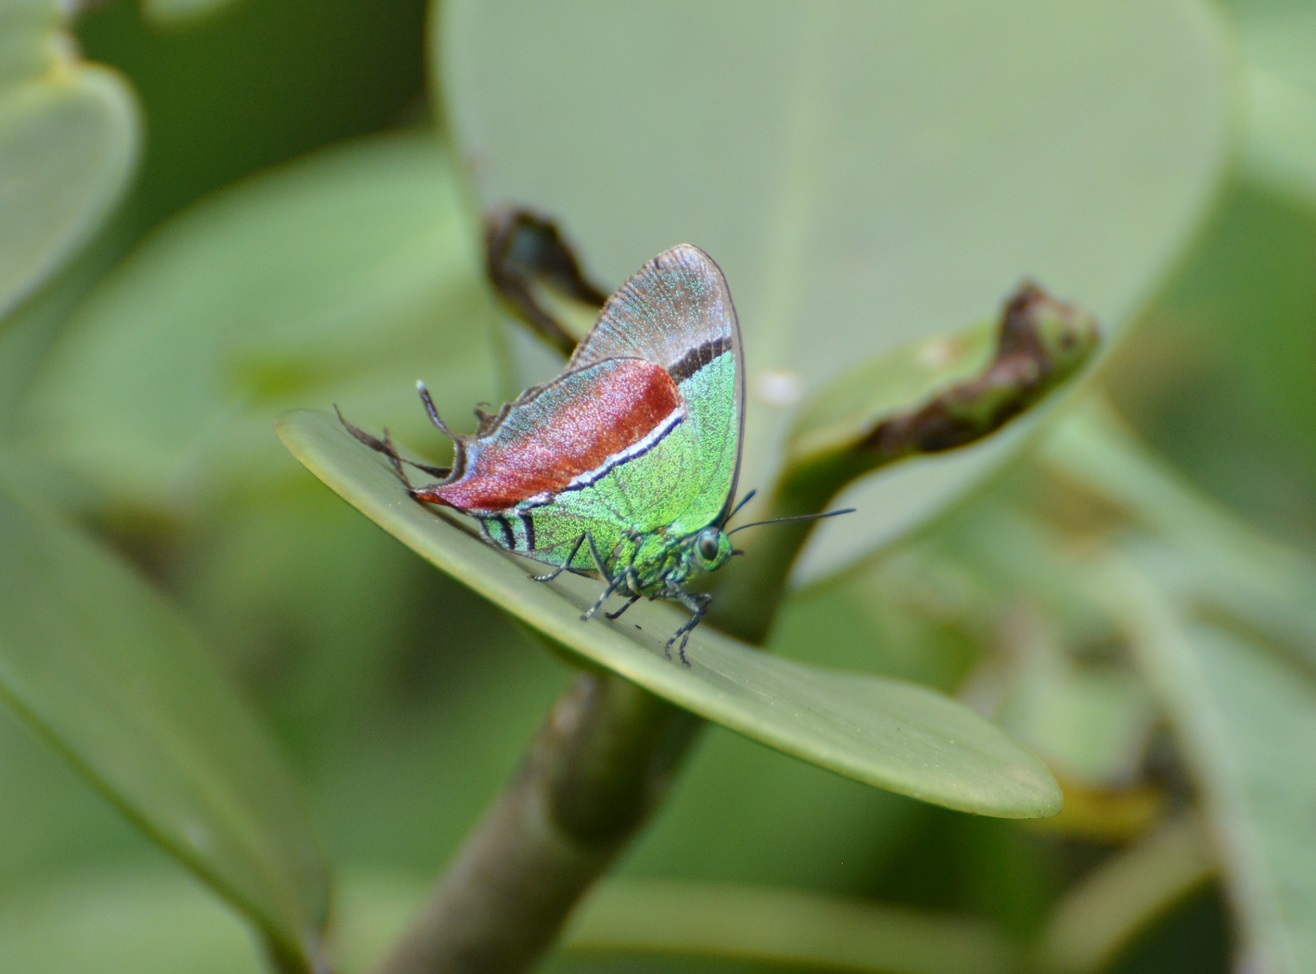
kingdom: Animalia
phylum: Arthropoda
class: Insecta
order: Lepidoptera
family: Lycaenidae
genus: Evenus
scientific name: Evenus regalis
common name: Regal hairstreak
